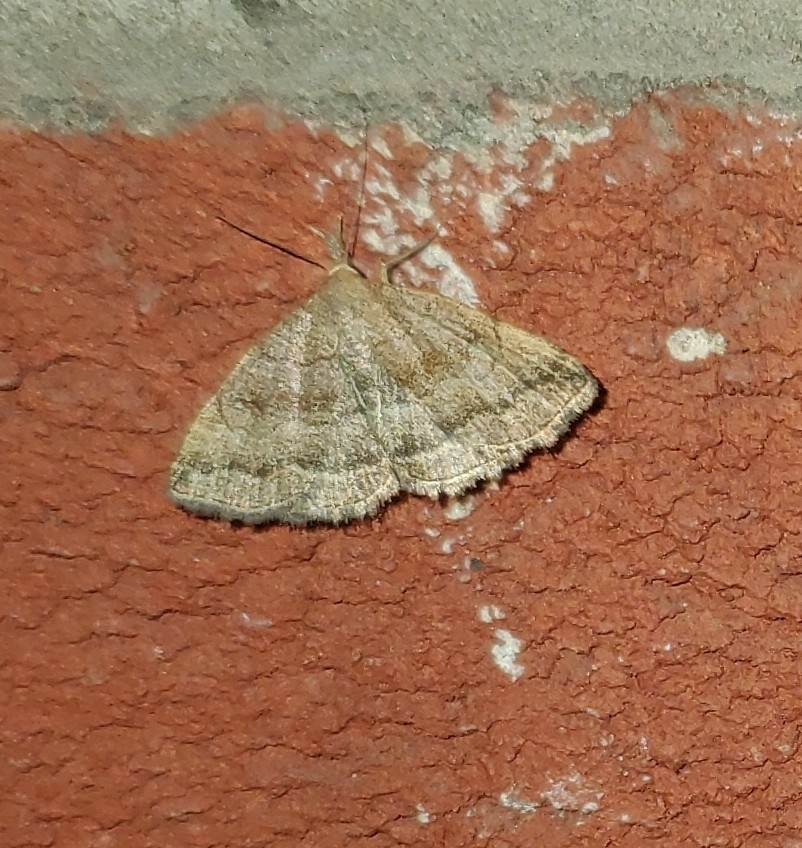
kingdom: Animalia
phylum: Arthropoda
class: Insecta
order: Lepidoptera
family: Erebidae
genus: Phalaenostola
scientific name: Phalaenostola metonalis
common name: Pale phalaenostola moth
